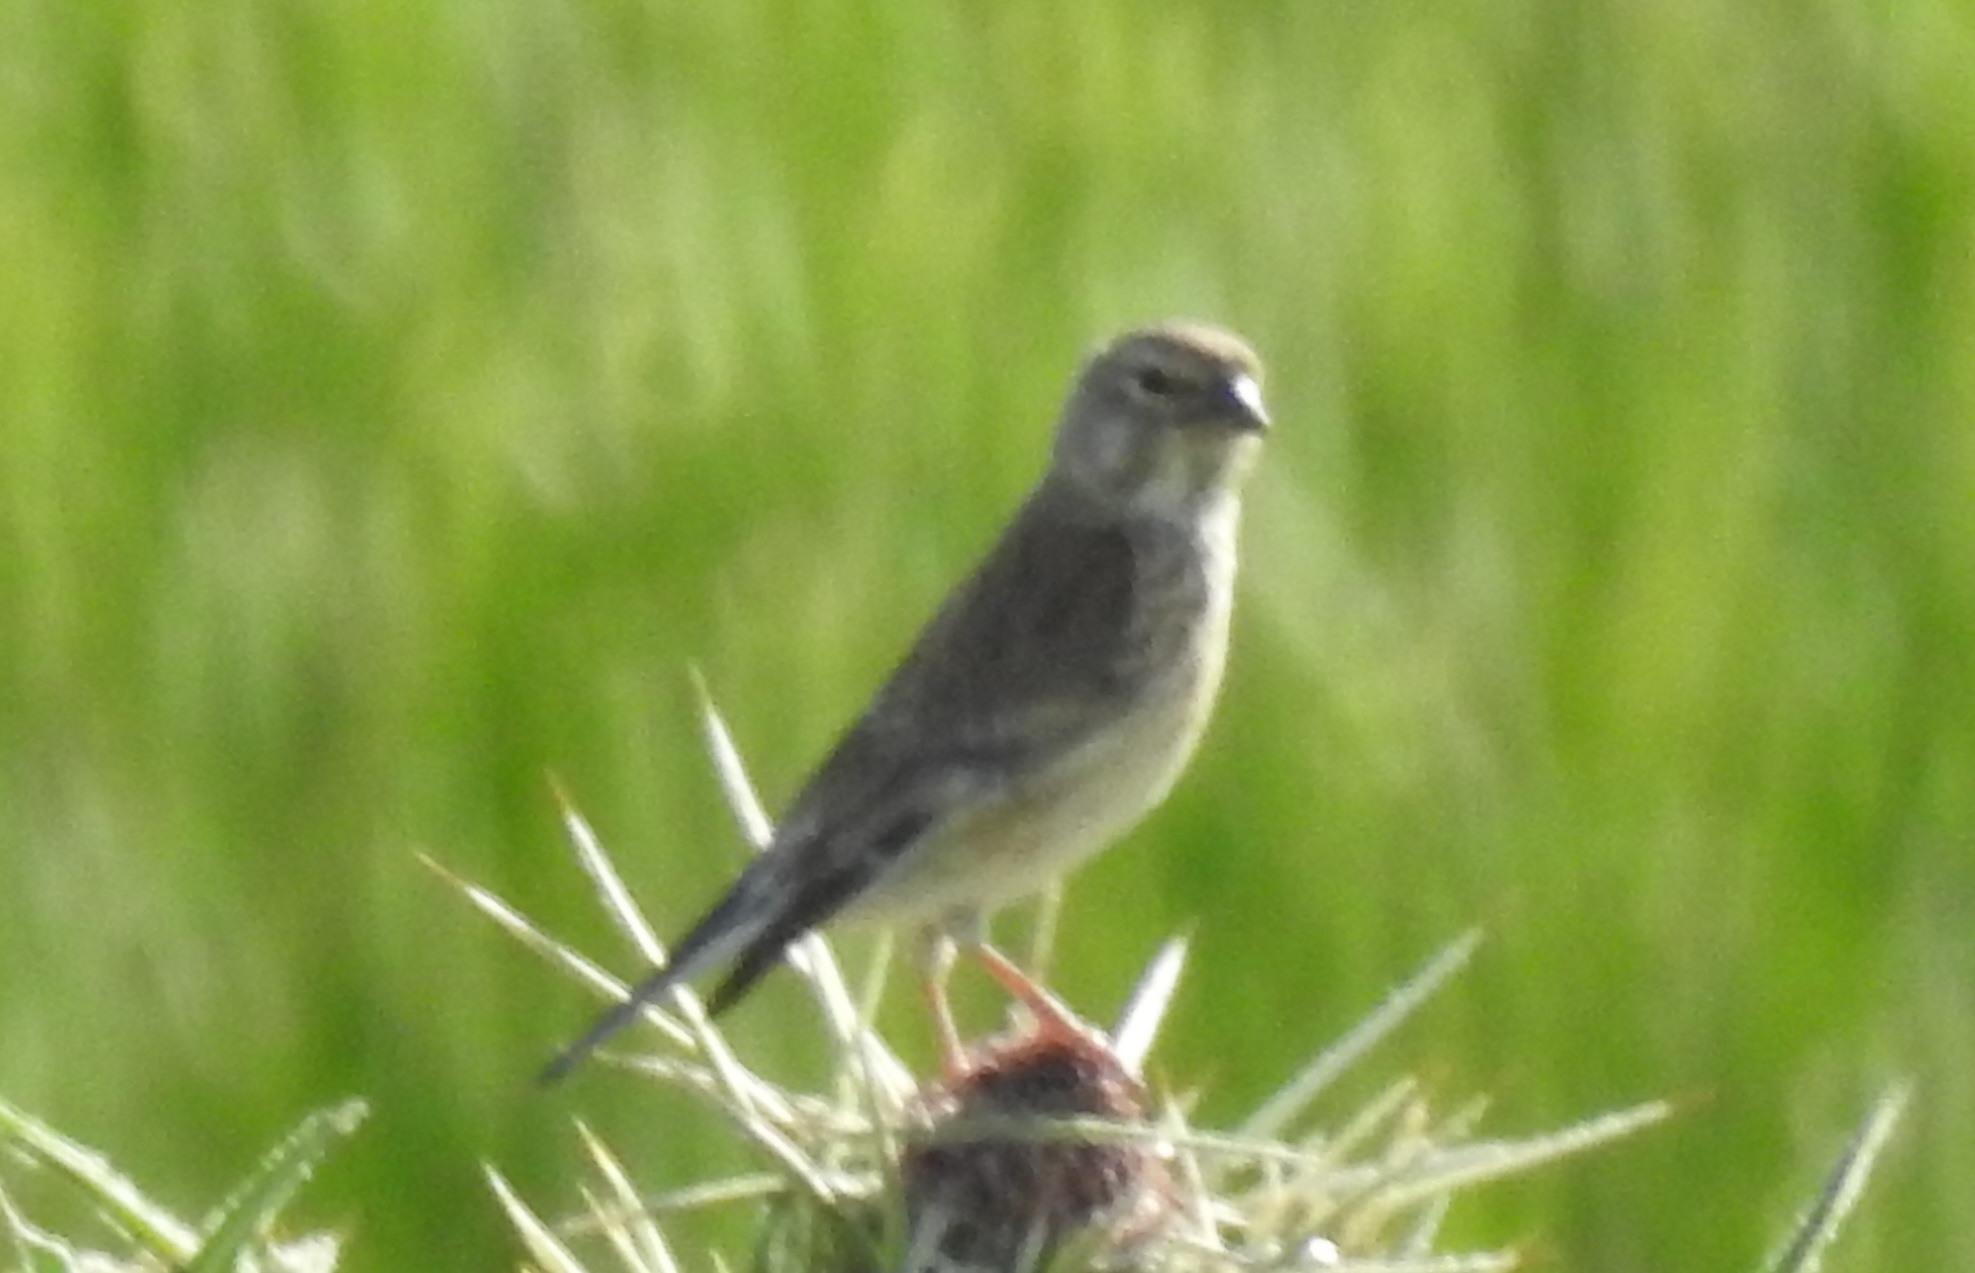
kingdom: Animalia
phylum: Chordata
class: Aves
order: Passeriformes
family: Fringillidae
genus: Linaria
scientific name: Linaria cannabina
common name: Common linnet
